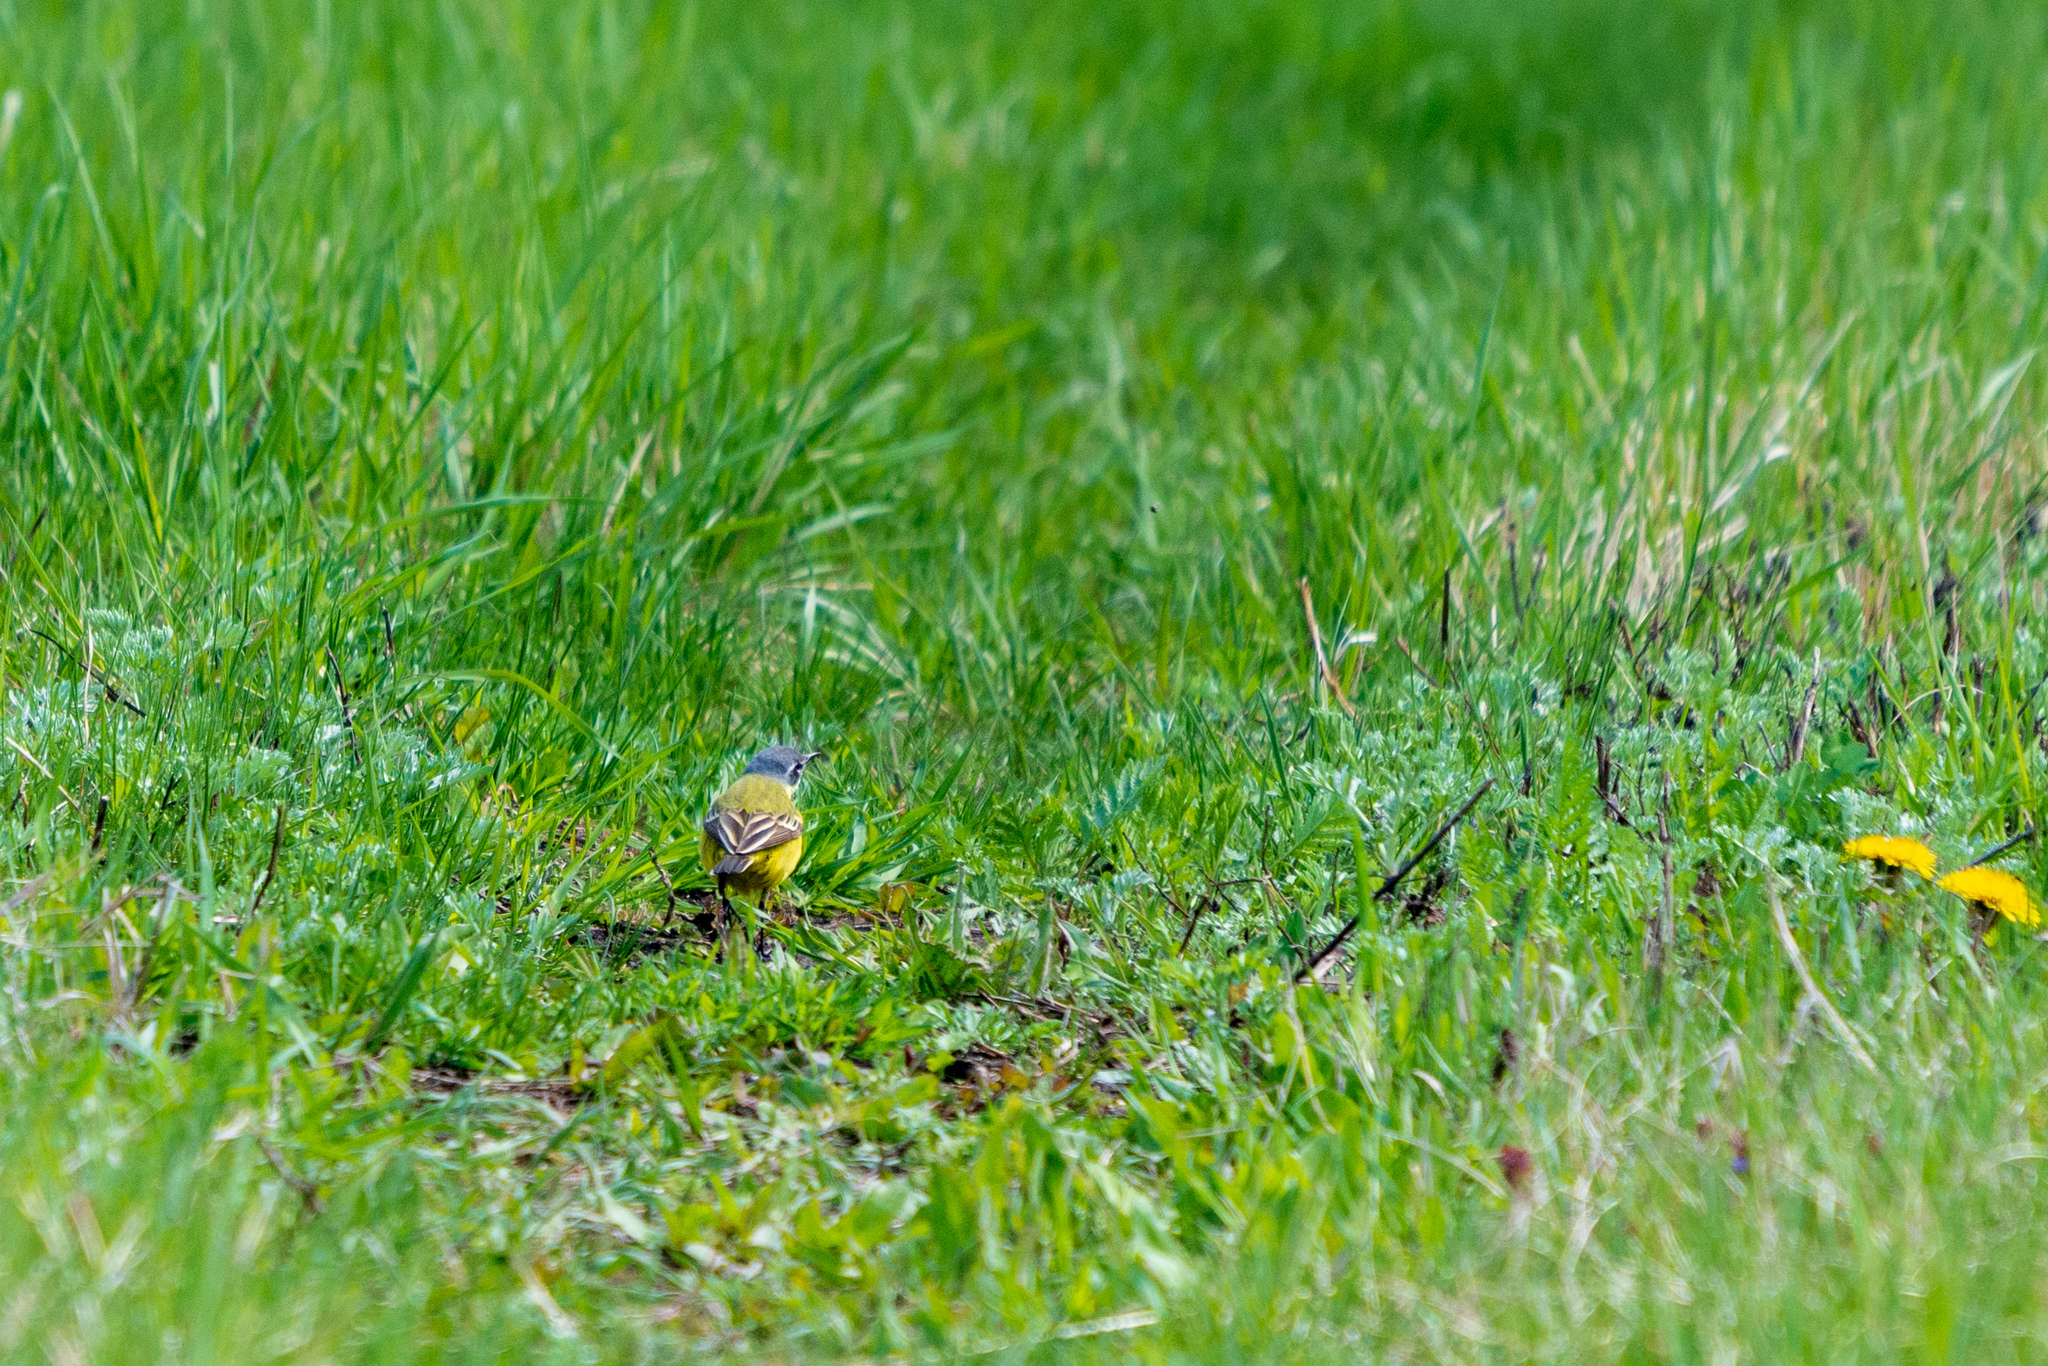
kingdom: Animalia
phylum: Chordata
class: Aves
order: Passeriformes
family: Motacillidae
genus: Motacilla
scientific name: Motacilla flava
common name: Western yellow wagtail
